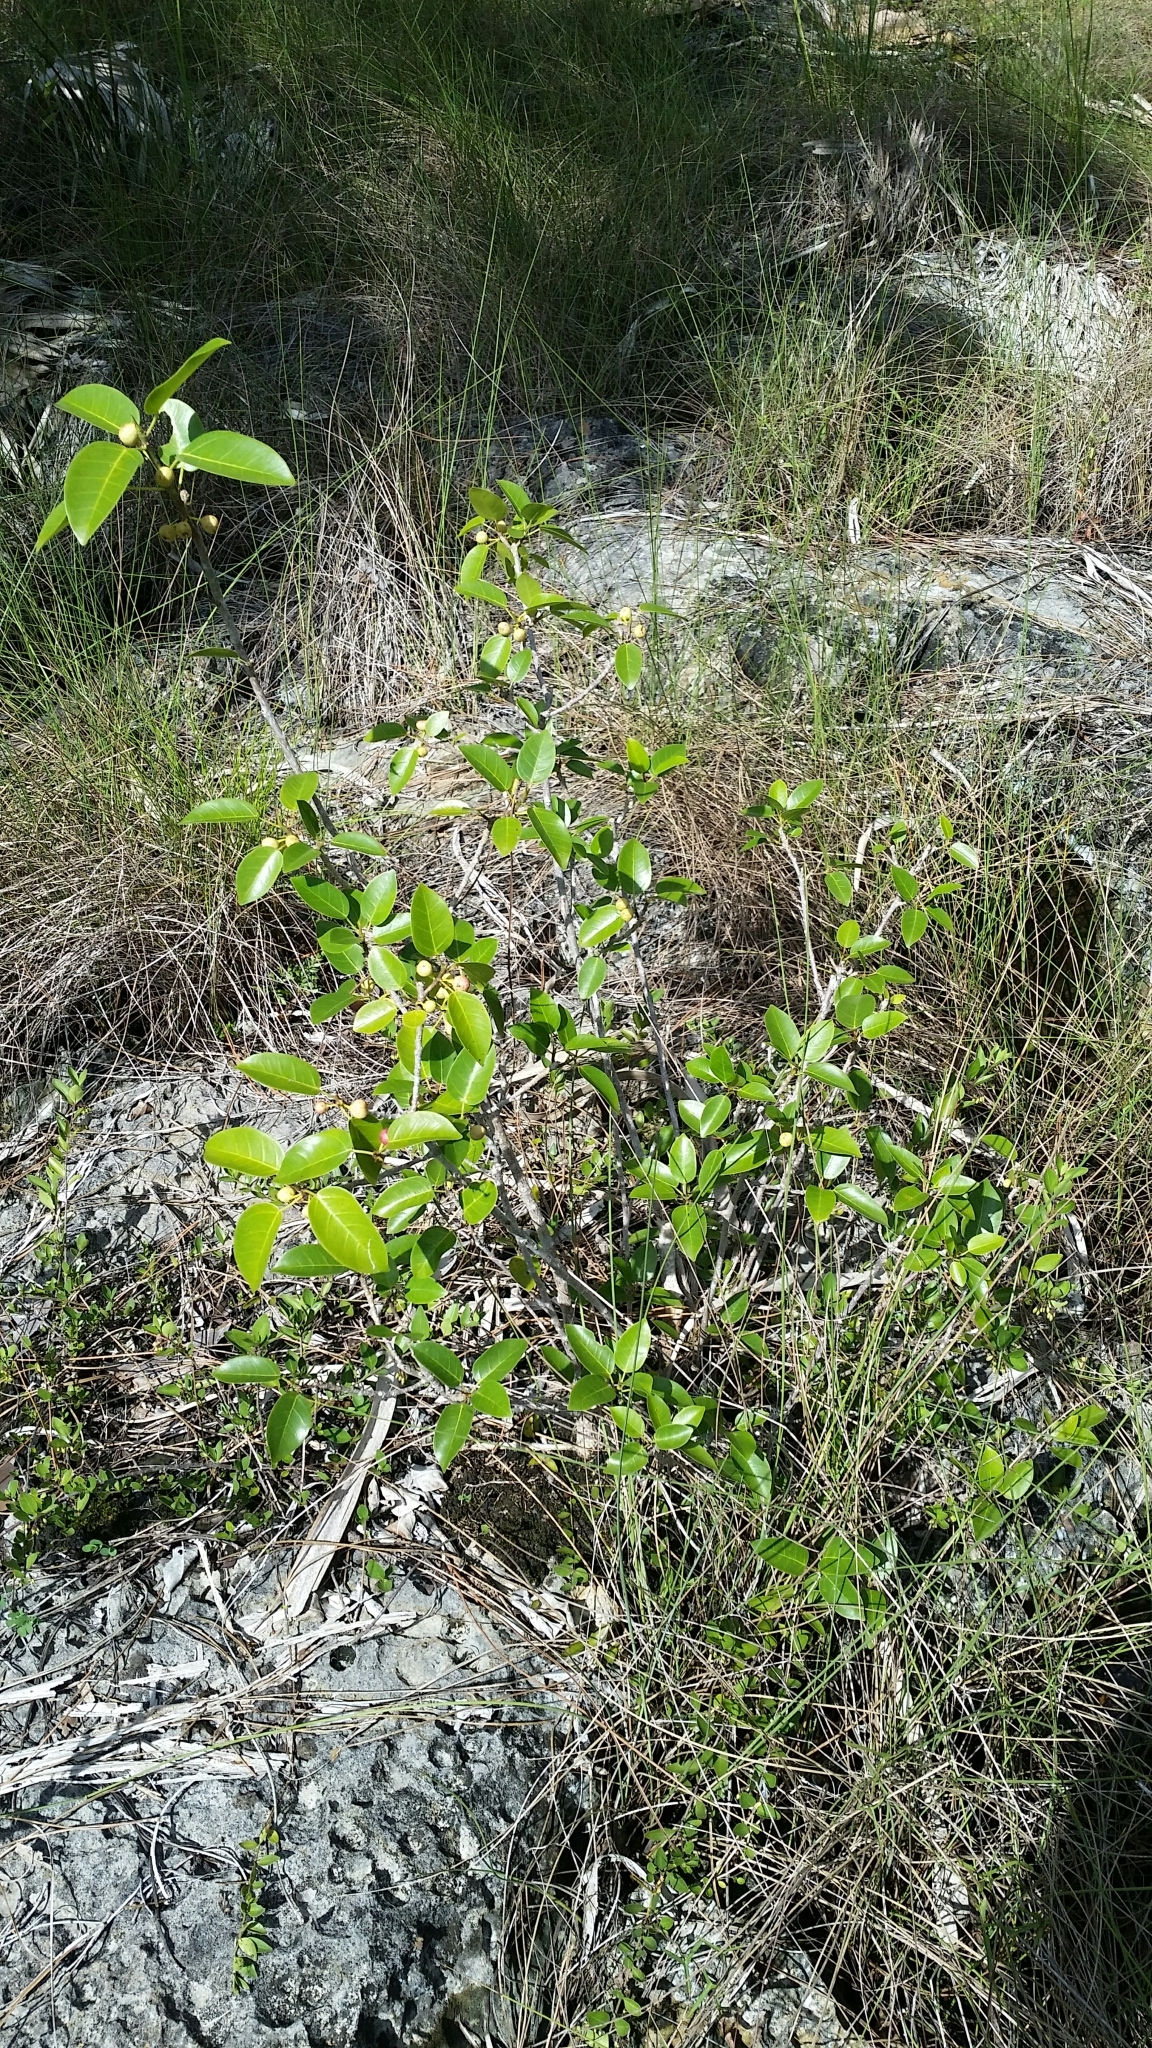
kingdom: Plantae
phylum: Tracheophyta
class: Magnoliopsida
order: Rosales
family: Moraceae
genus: Ficus
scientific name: Ficus citrifolia
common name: Strangler fig
